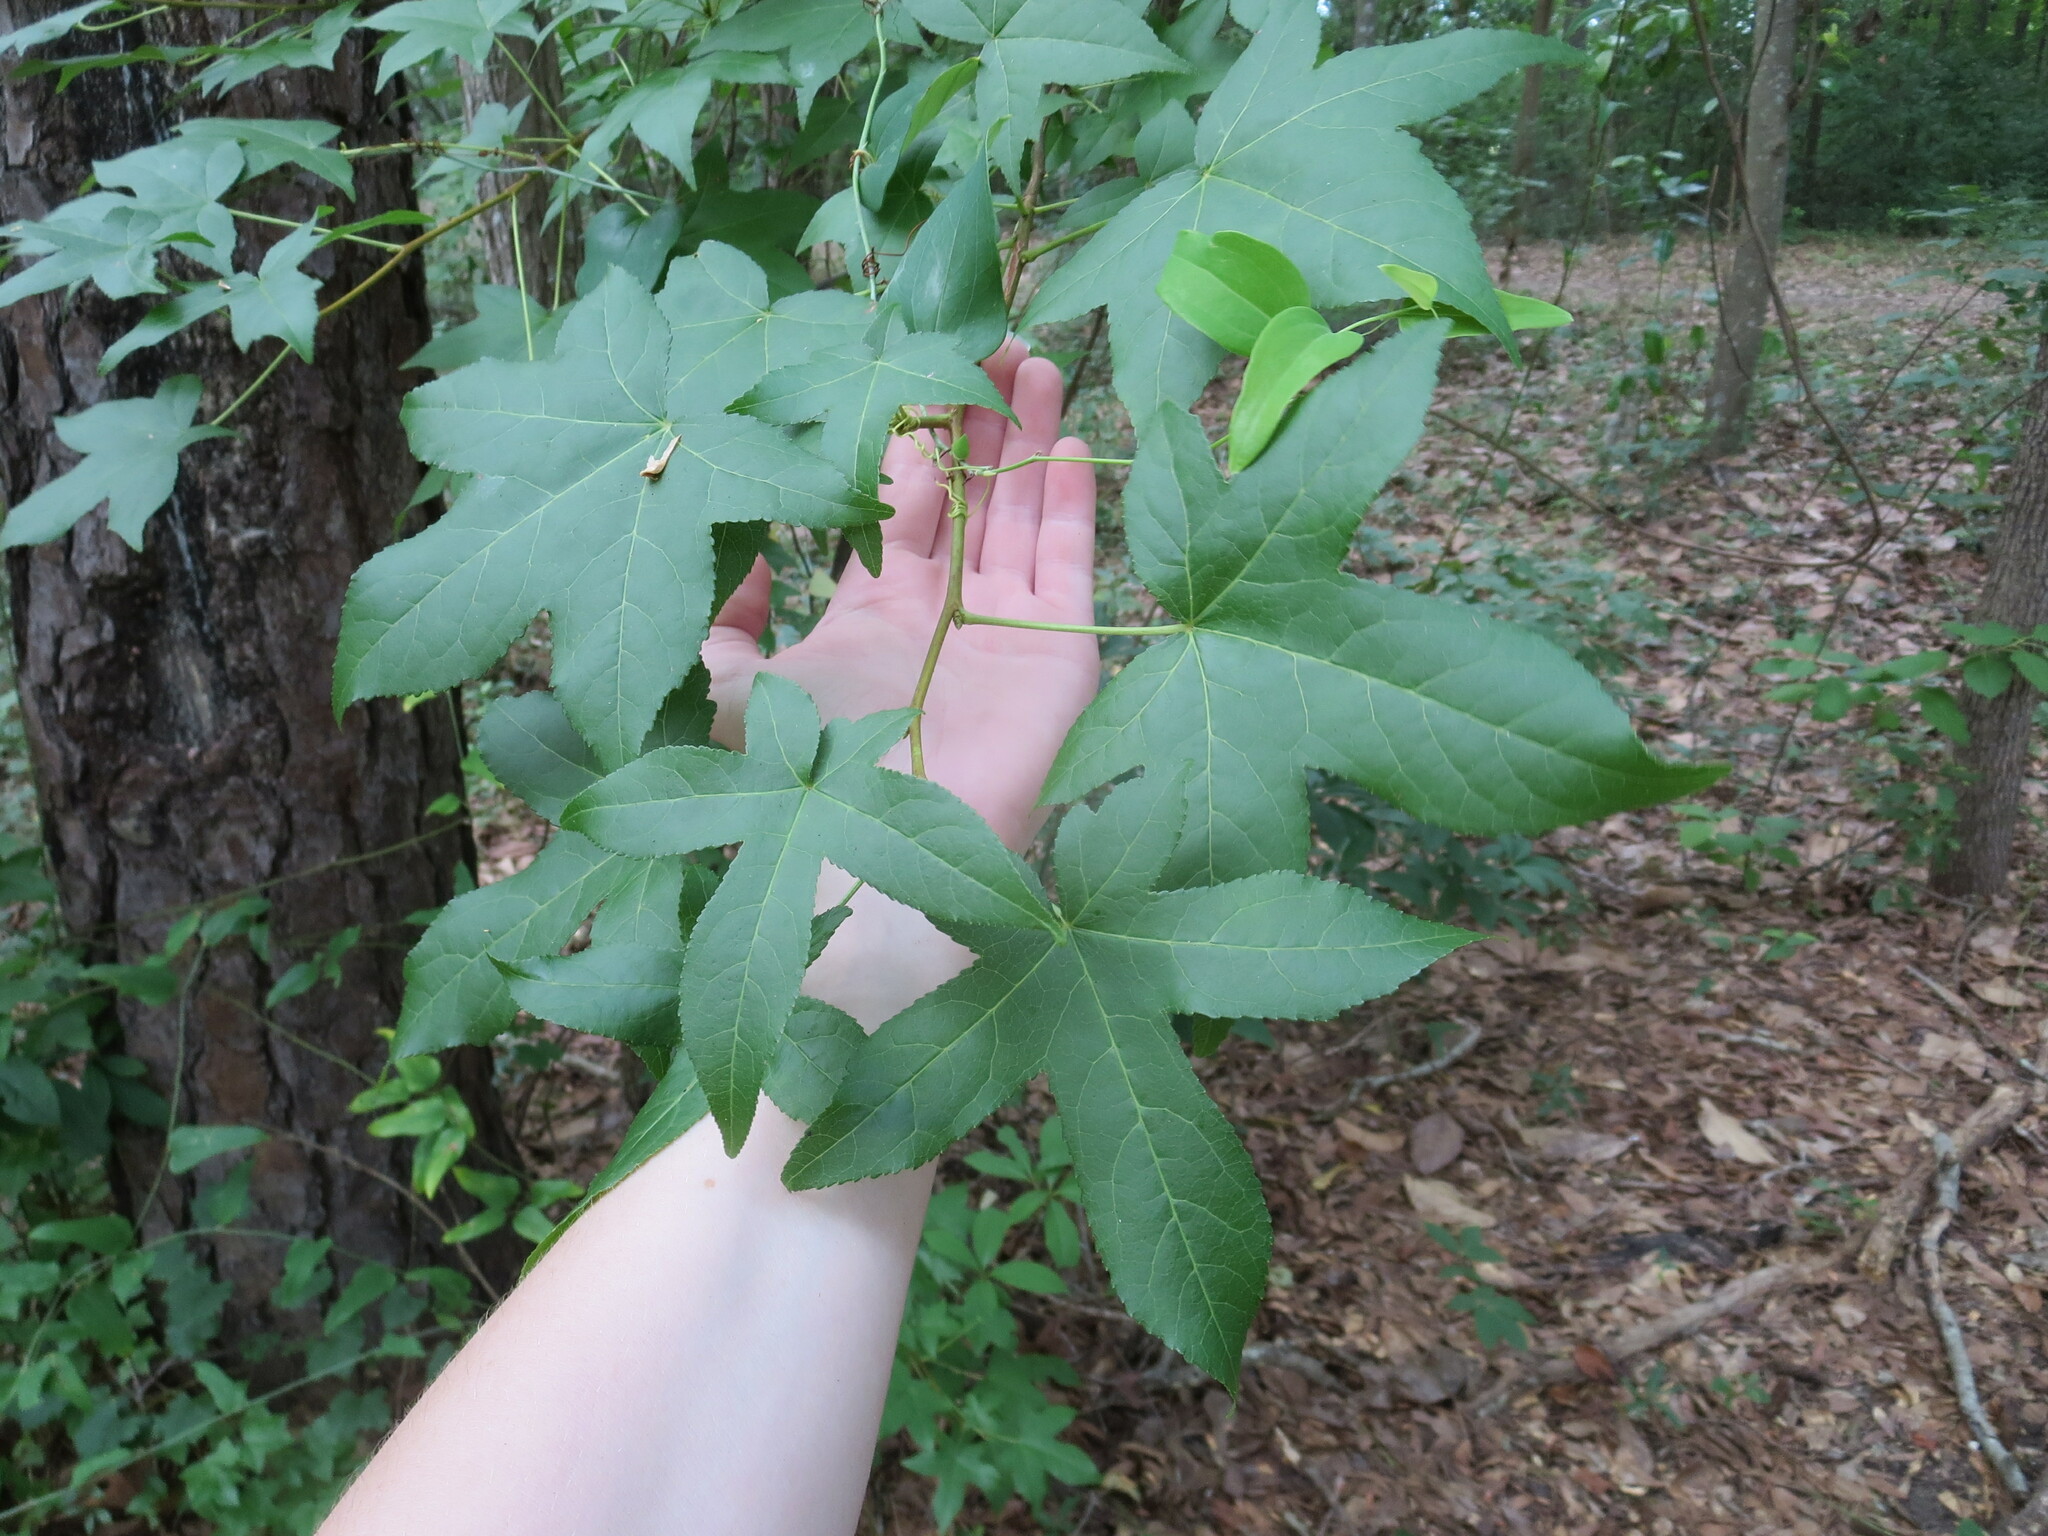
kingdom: Plantae
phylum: Tracheophyta
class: Magnoliopsida
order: Saxifragales
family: Altingiaceae
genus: Liquidambar
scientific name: Liquidambar styraciflua
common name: Sweet gum
